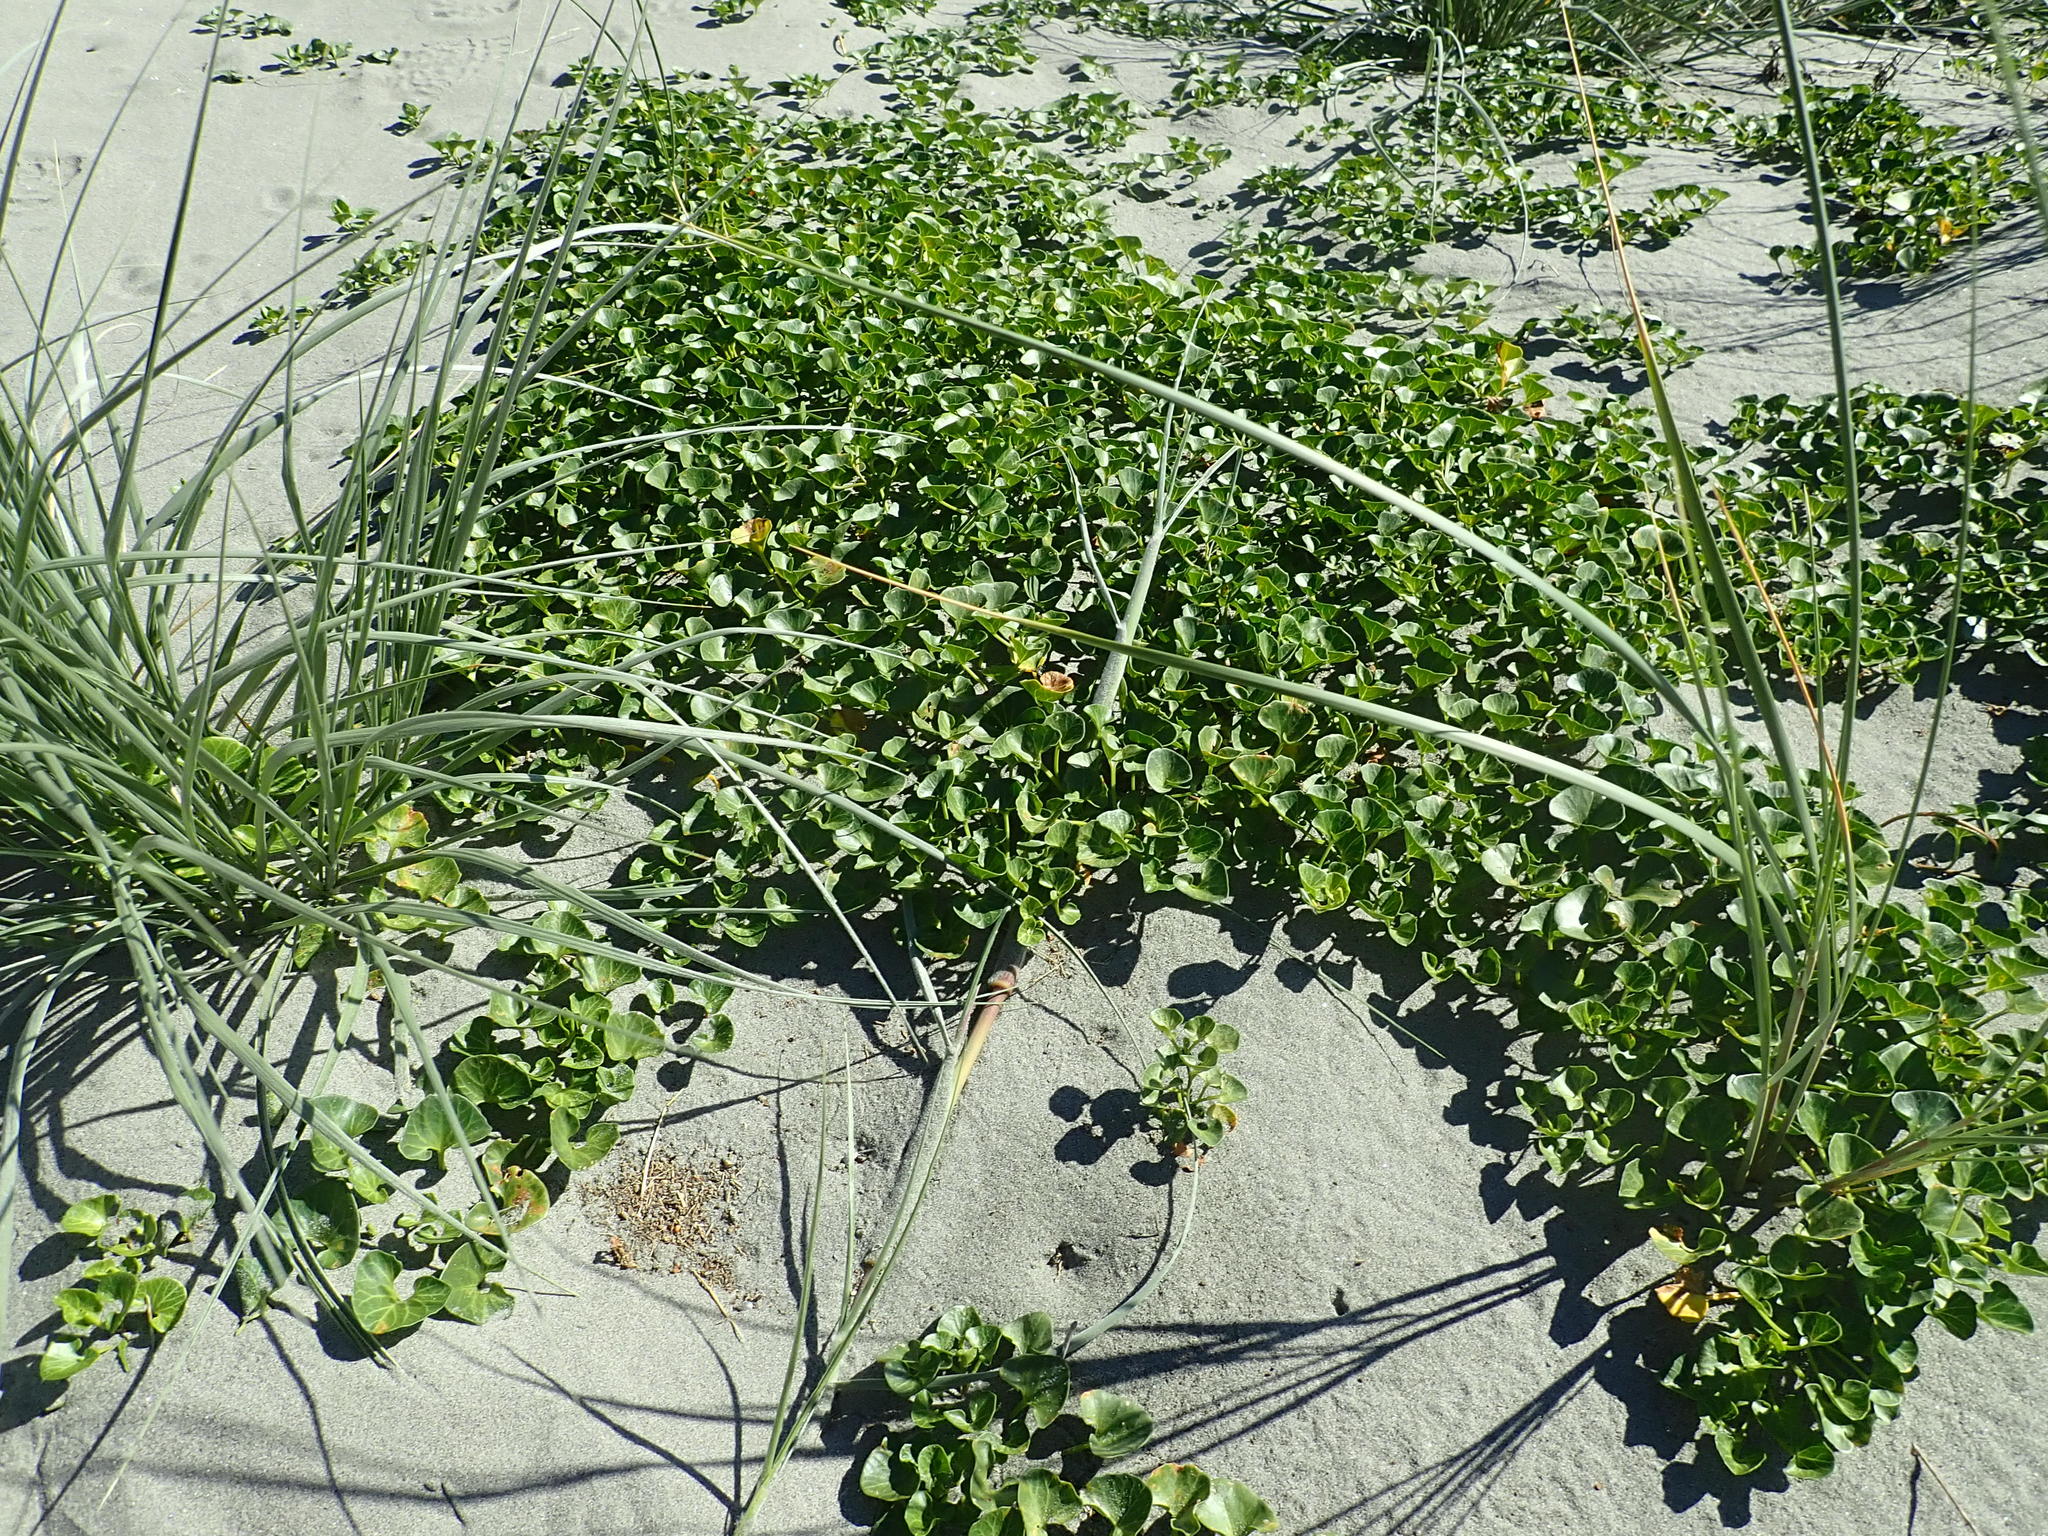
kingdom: Plantae
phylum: Tracheophyta
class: Magnoliopsida
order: Solanales
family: Convolvulaceae
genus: Calystegia
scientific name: Calystegia soldanella
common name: Sea bindweed
